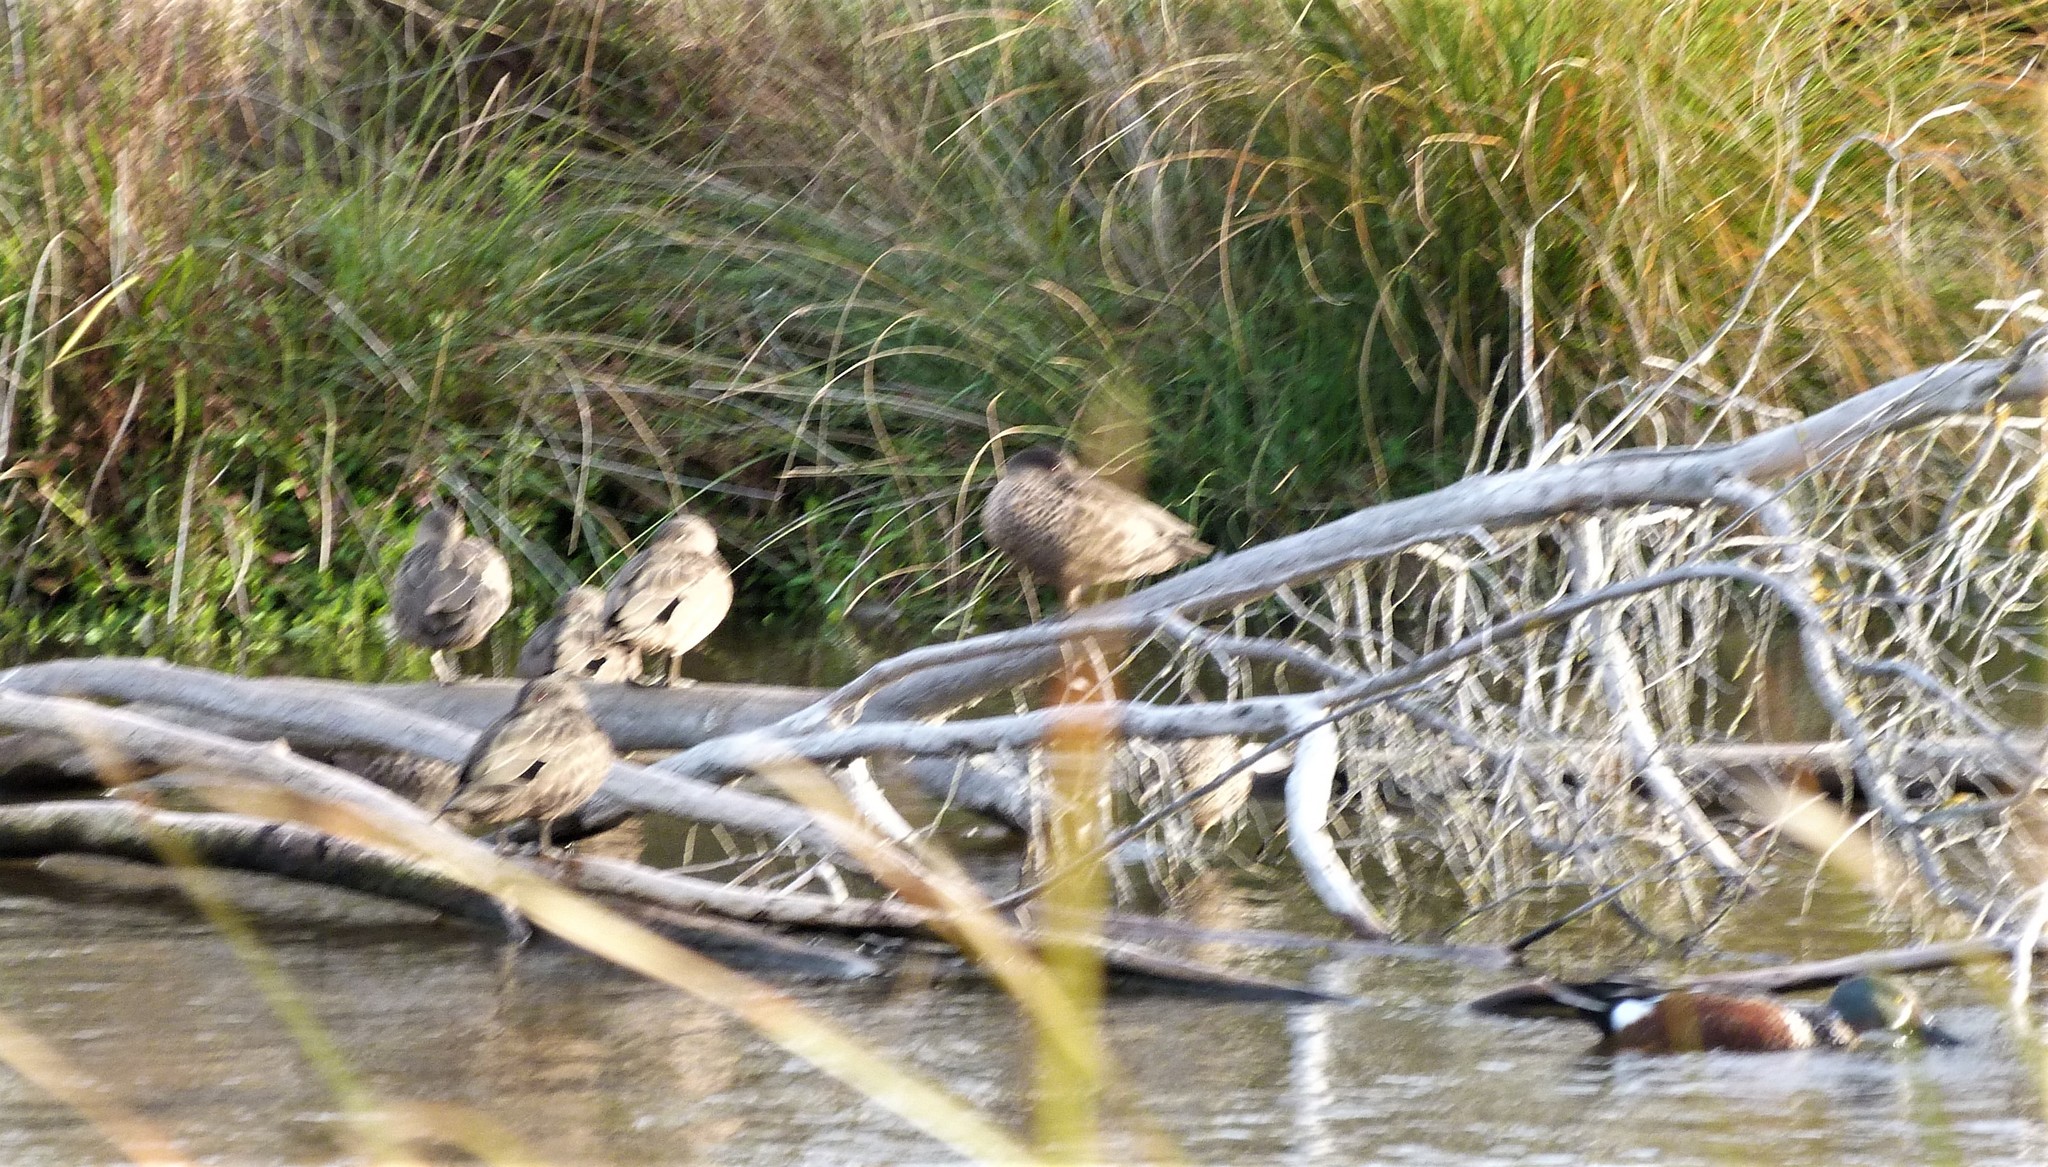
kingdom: Animalia
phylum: Chordata
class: Aves
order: Anseriformes
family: Anatidae
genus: Anas
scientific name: Anas gracilis
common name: Grey teal
